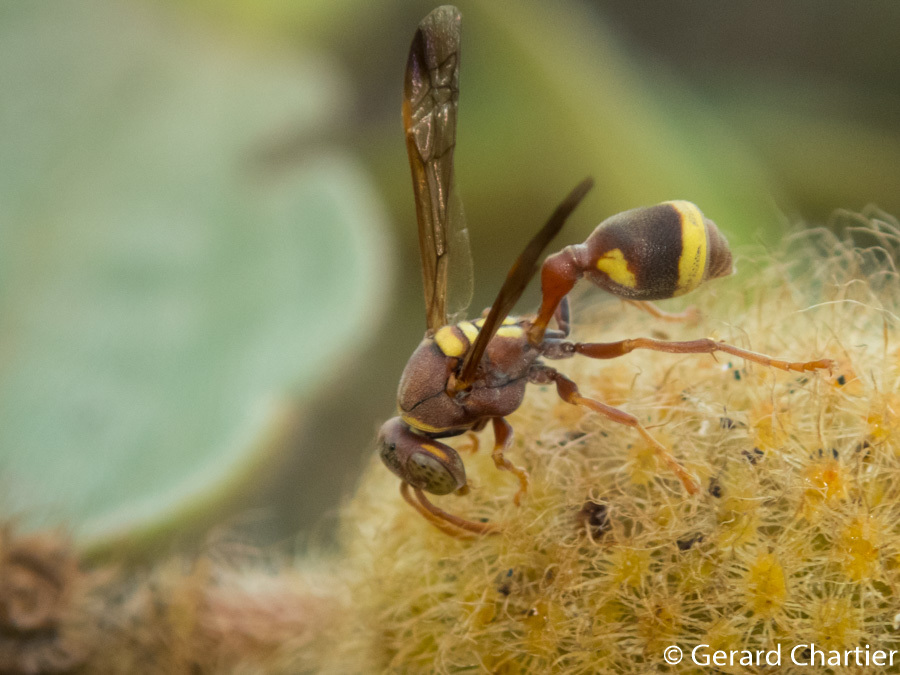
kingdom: Animalia
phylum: Arthropoda
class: Insecta
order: Hymenoptera
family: Vespidae
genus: Ropalidia
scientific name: Ropalidia fasciata
